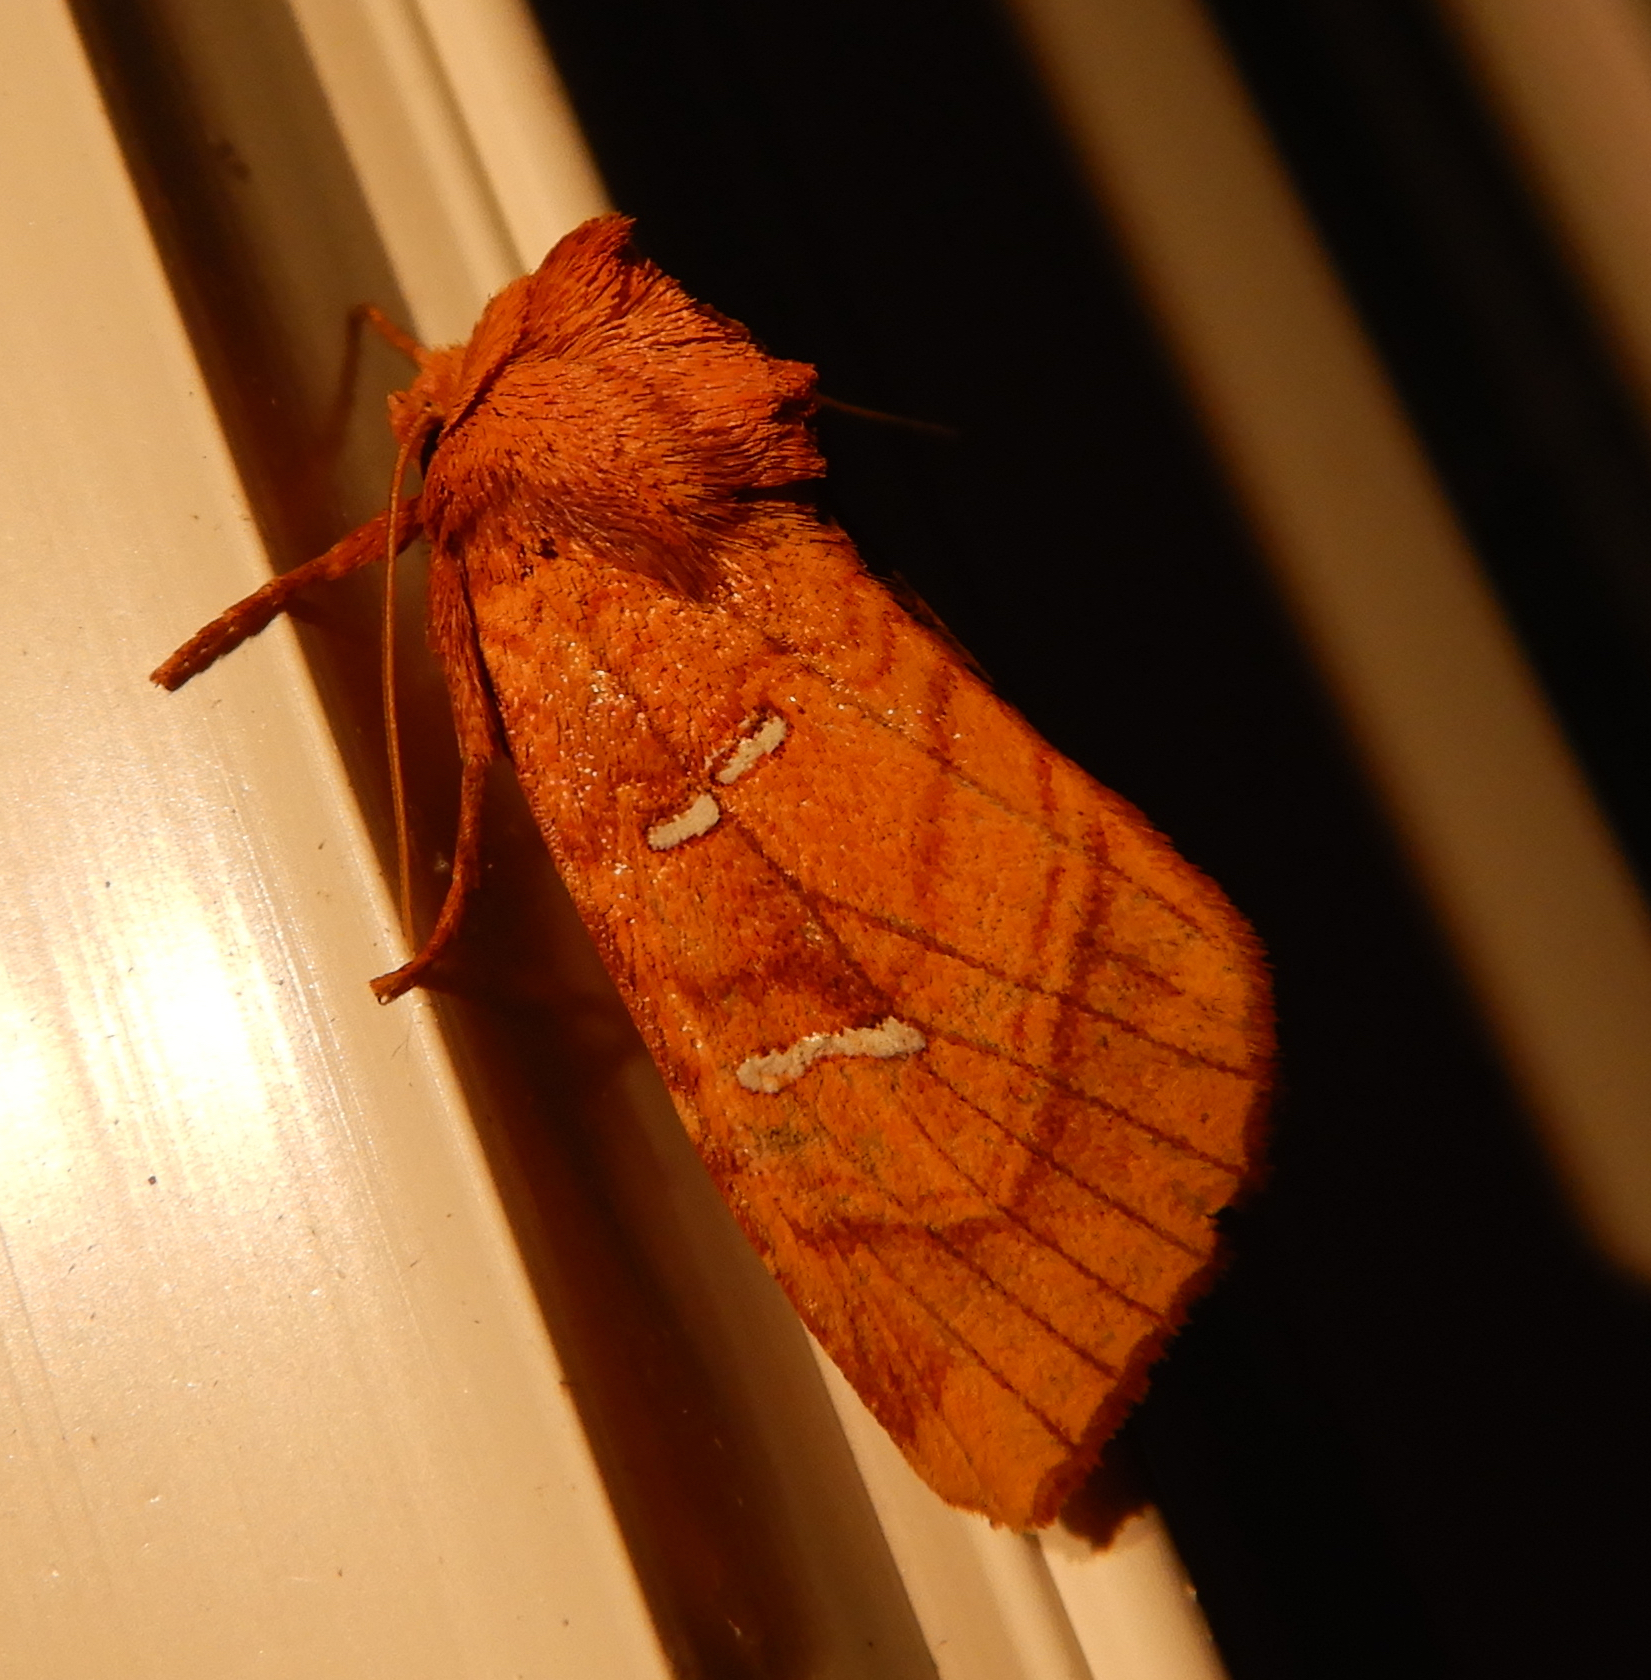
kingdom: Animalia
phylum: Arthropoda
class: Insecta
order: Lepidoptera
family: Noctuidae
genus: Papaipema
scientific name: Papaipema inquaesita
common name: Sensitive fern borer moth
